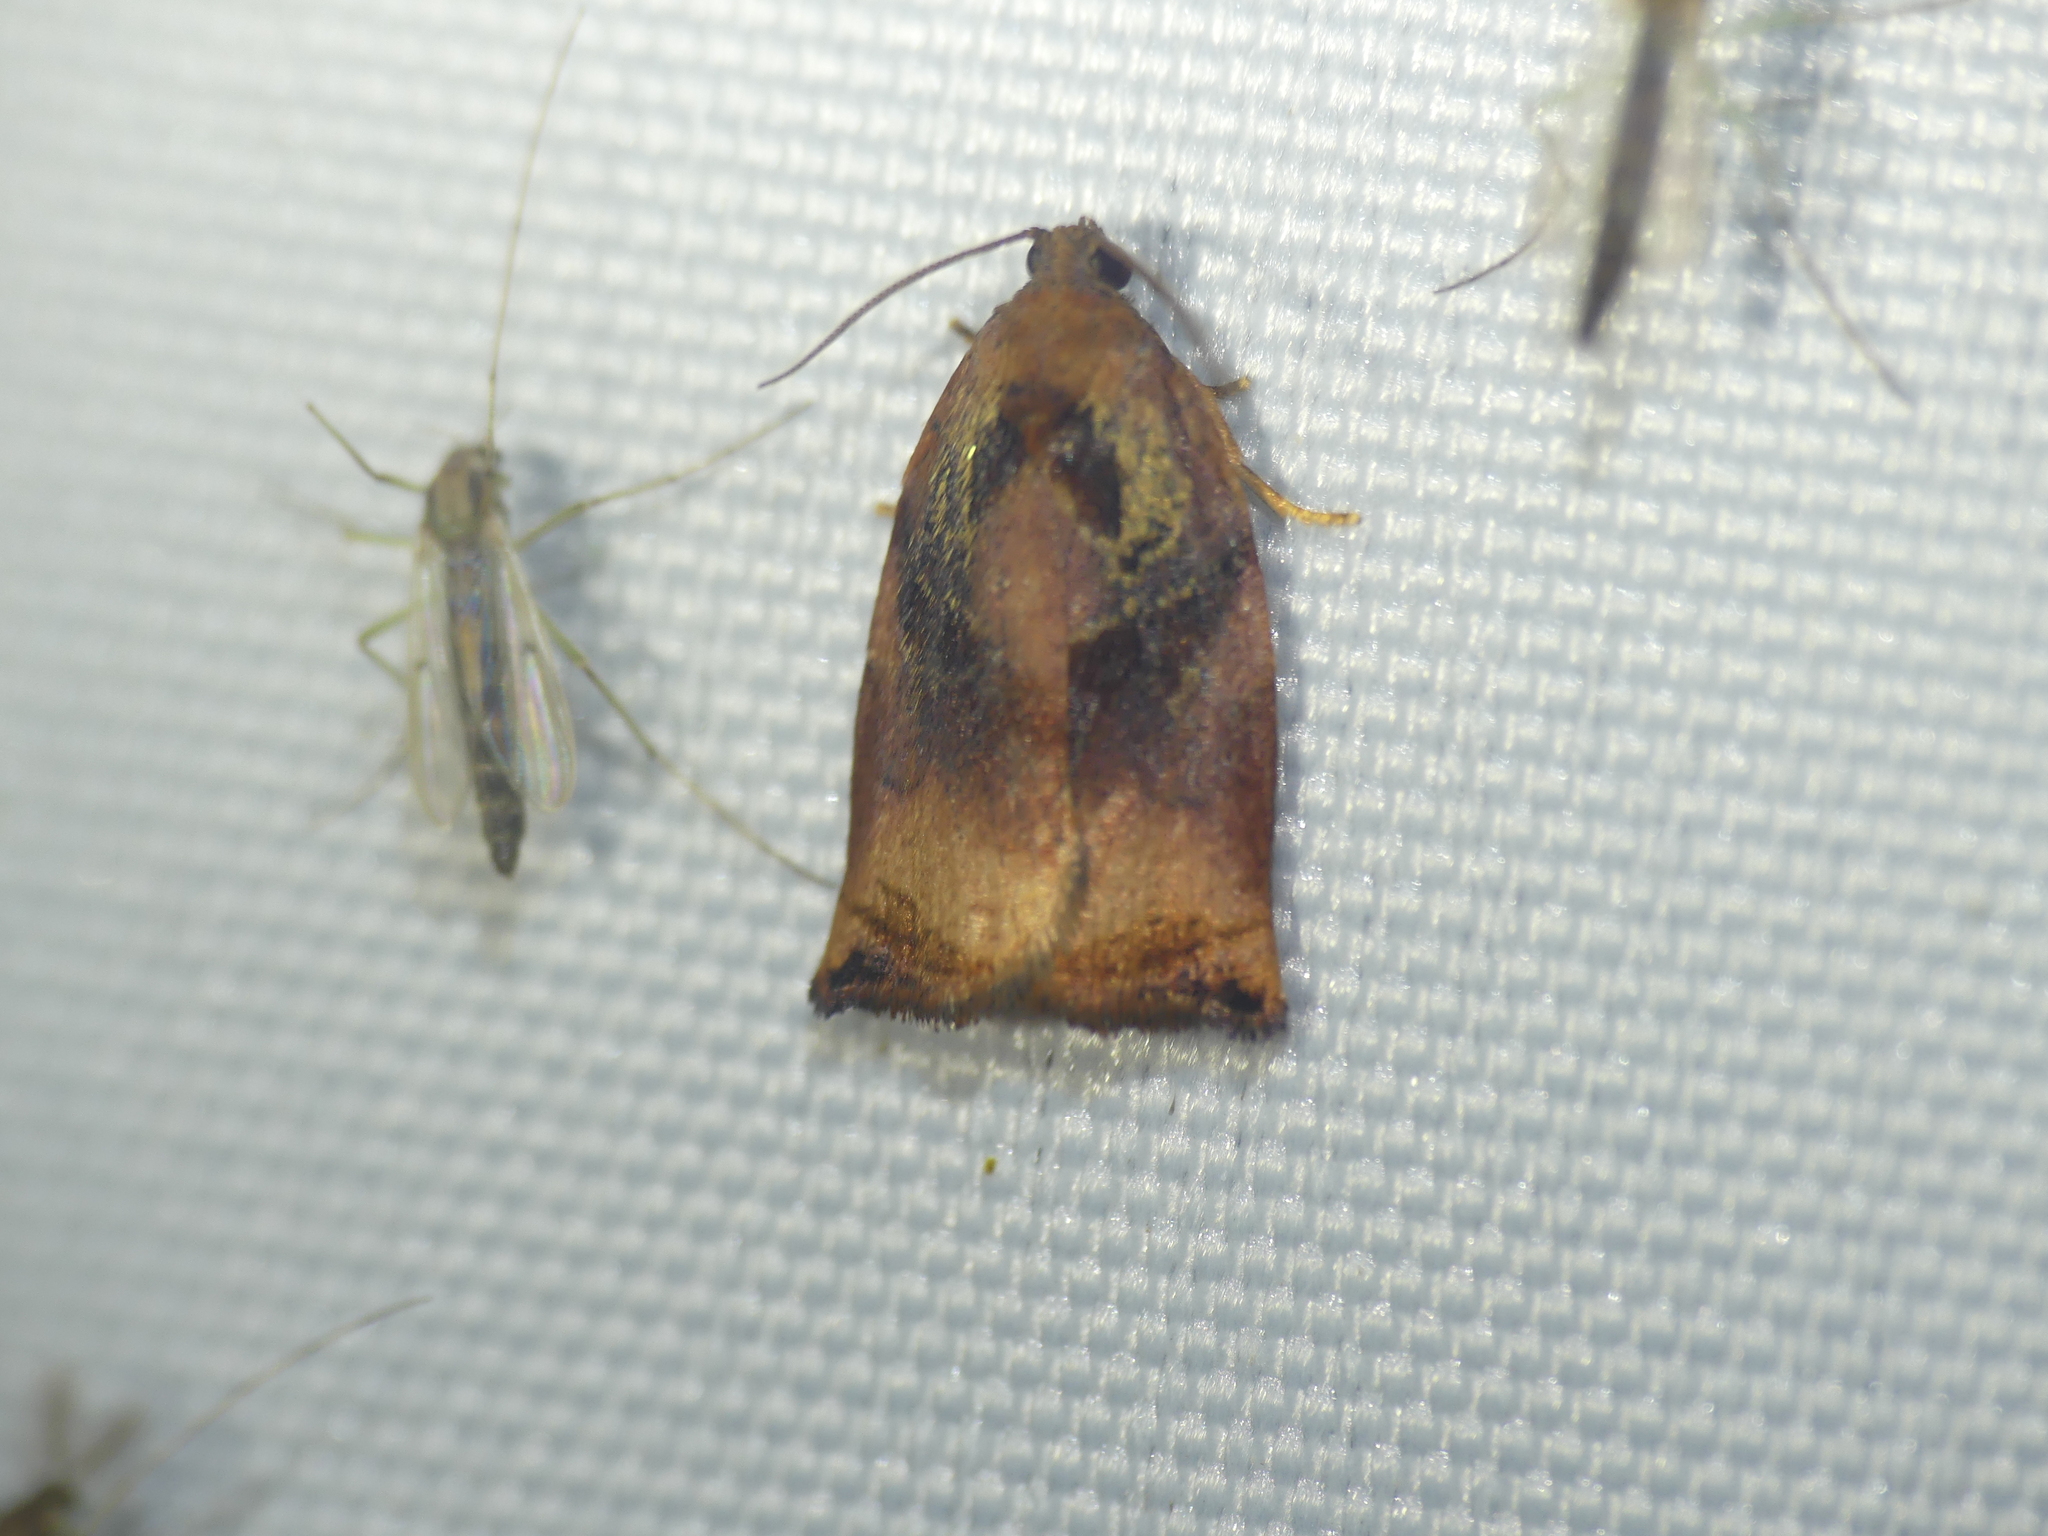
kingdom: Animalia
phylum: Arthropoda
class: Insecta
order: Lepidoptera
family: Tortricidae
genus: Archips
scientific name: Archips podana
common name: Large fruit-tree tortrix
